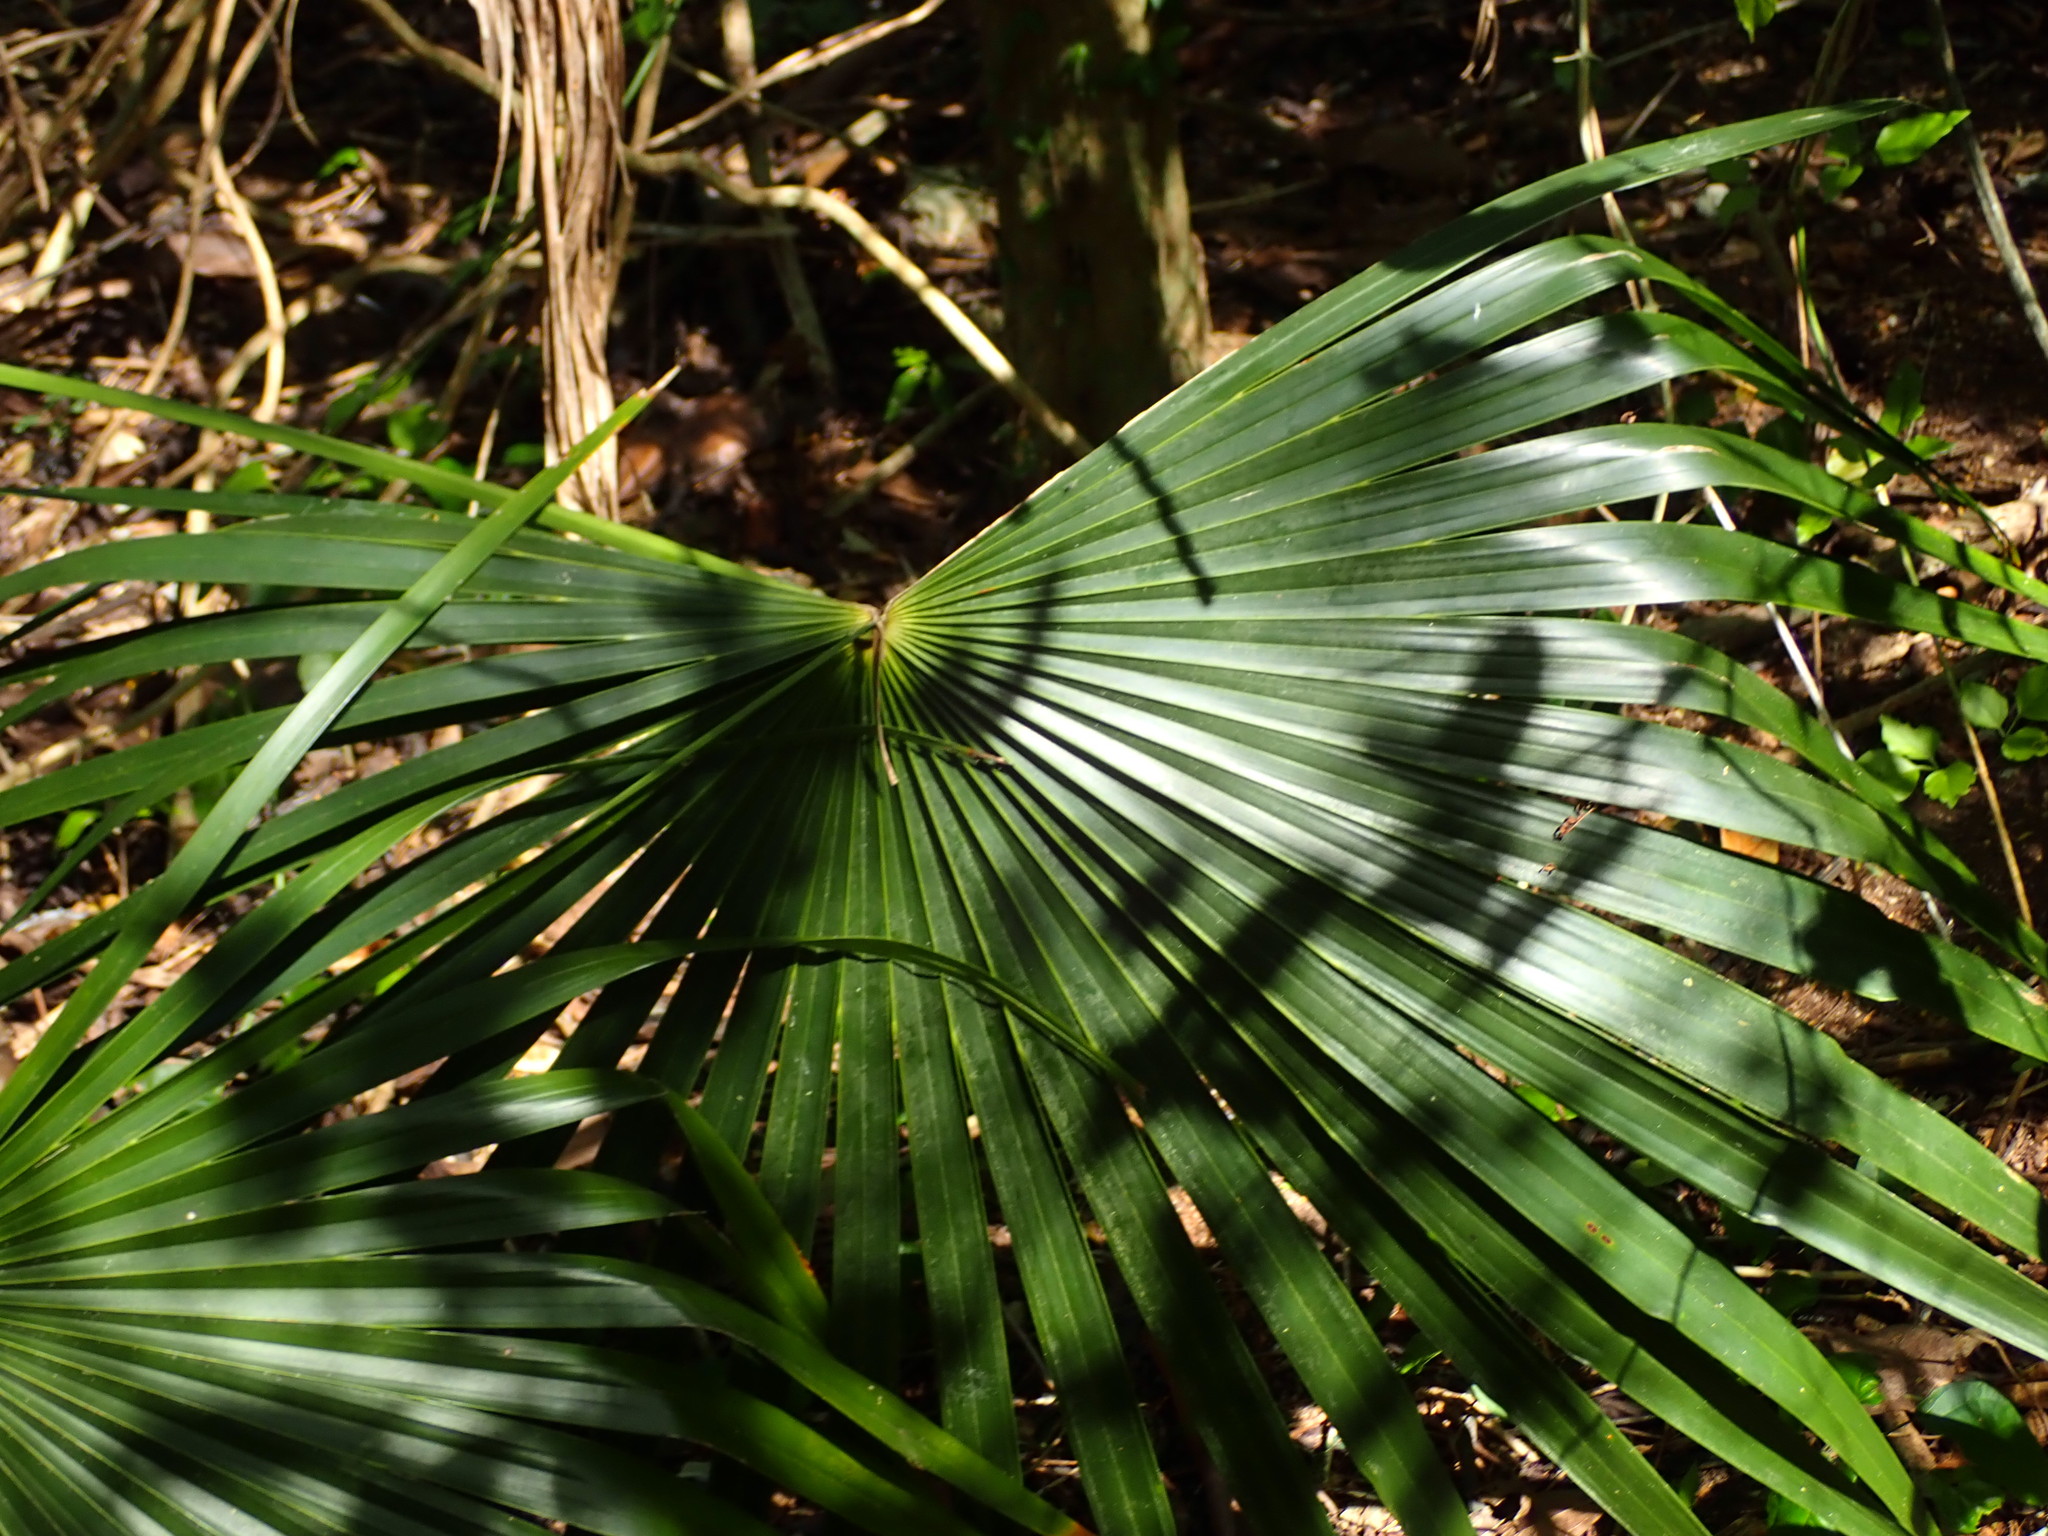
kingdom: Plantae
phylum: Tracheophyta
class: Liliopsida
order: Arecales
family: Arecaceae
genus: Leucothrinax
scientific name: Leucothrinax morrisii
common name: Key palm
